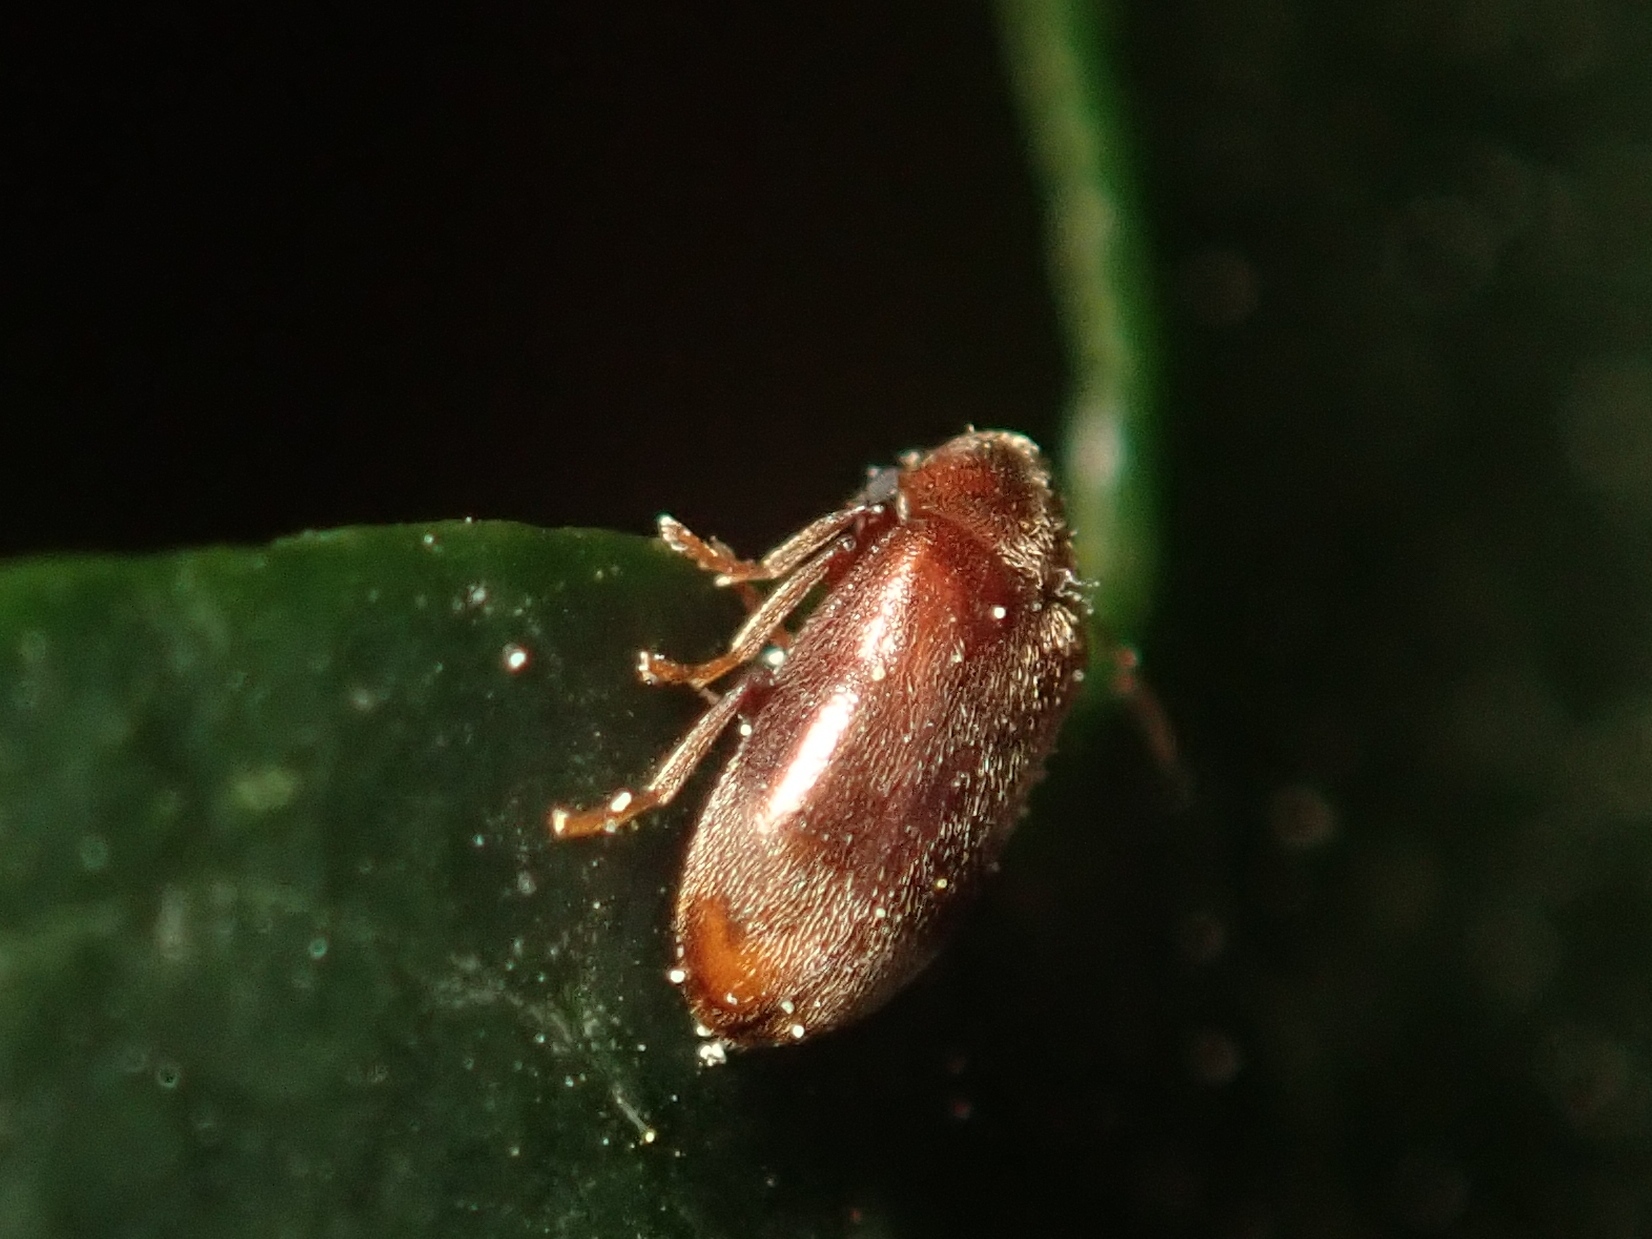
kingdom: Animalia
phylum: Arthropoda
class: Insecta
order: Coleoptera
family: Ptinidae
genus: Ochina
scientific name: Ochina ptinoides
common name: Ivy boring beetle
